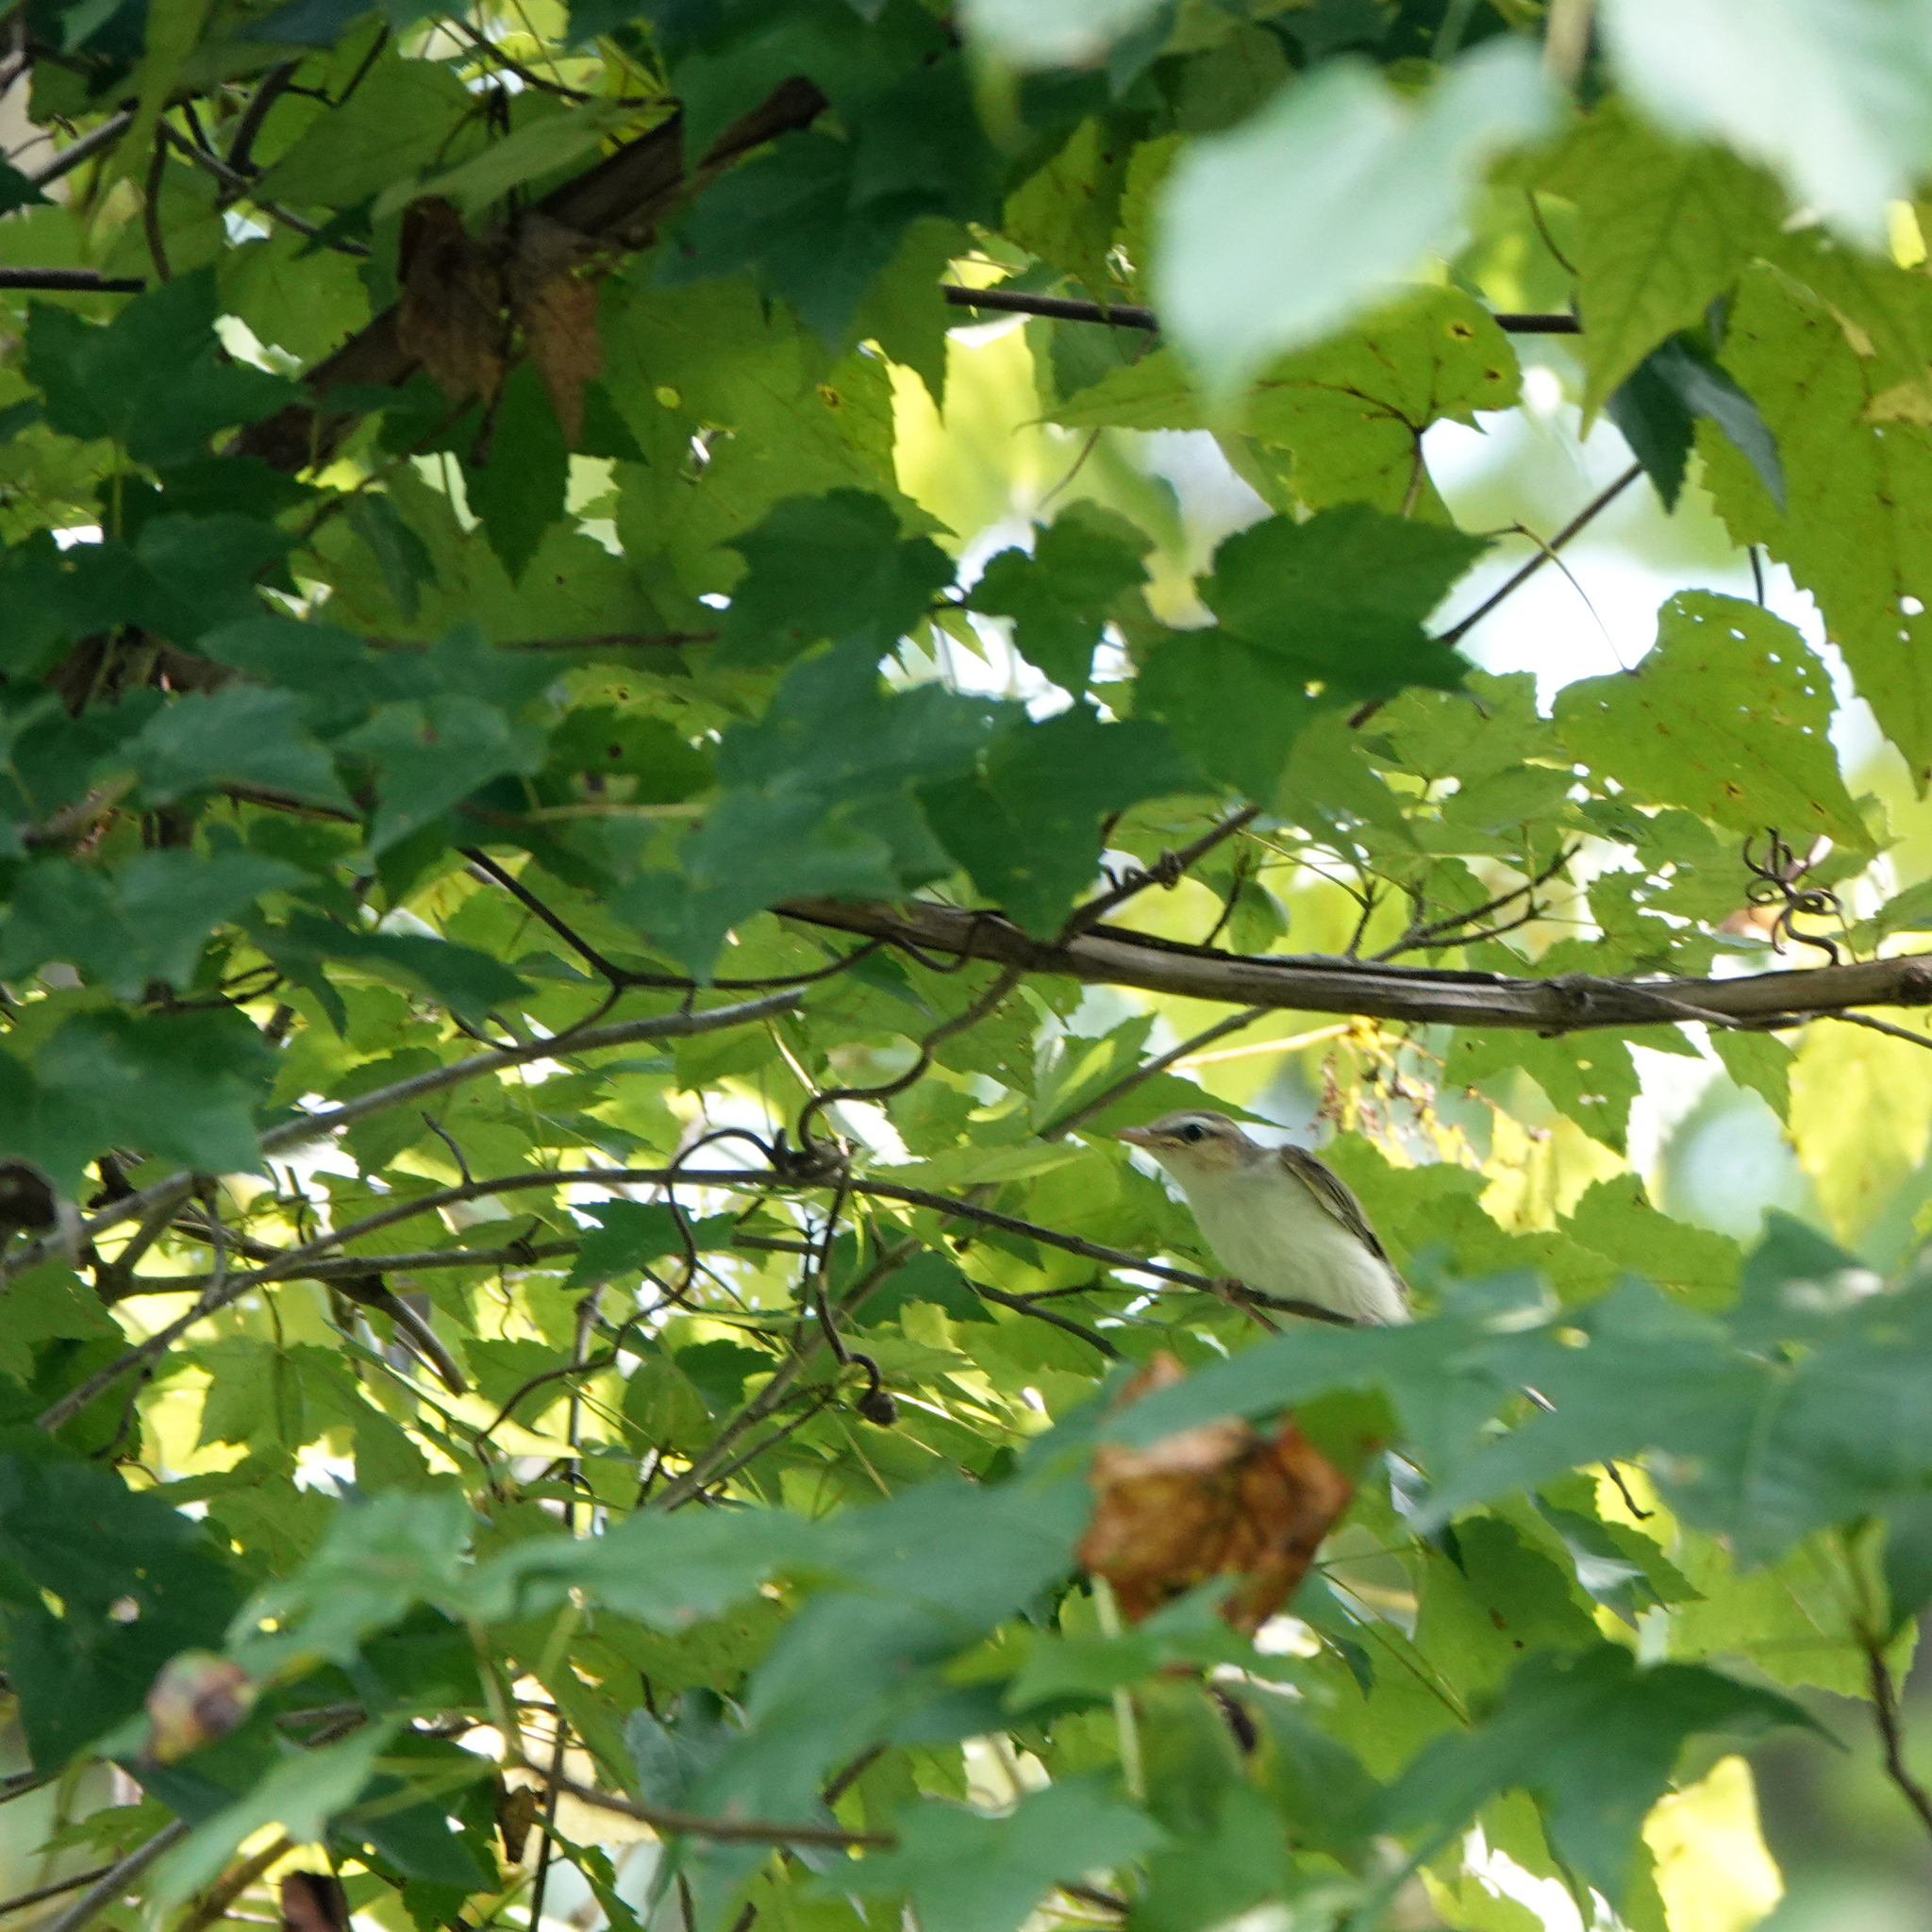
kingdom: Animalia
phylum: Chordata
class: Aves
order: Passeriformes
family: Vireonidae
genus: Vireo
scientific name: Vireo olivaceus
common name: Red-eyed vireo
